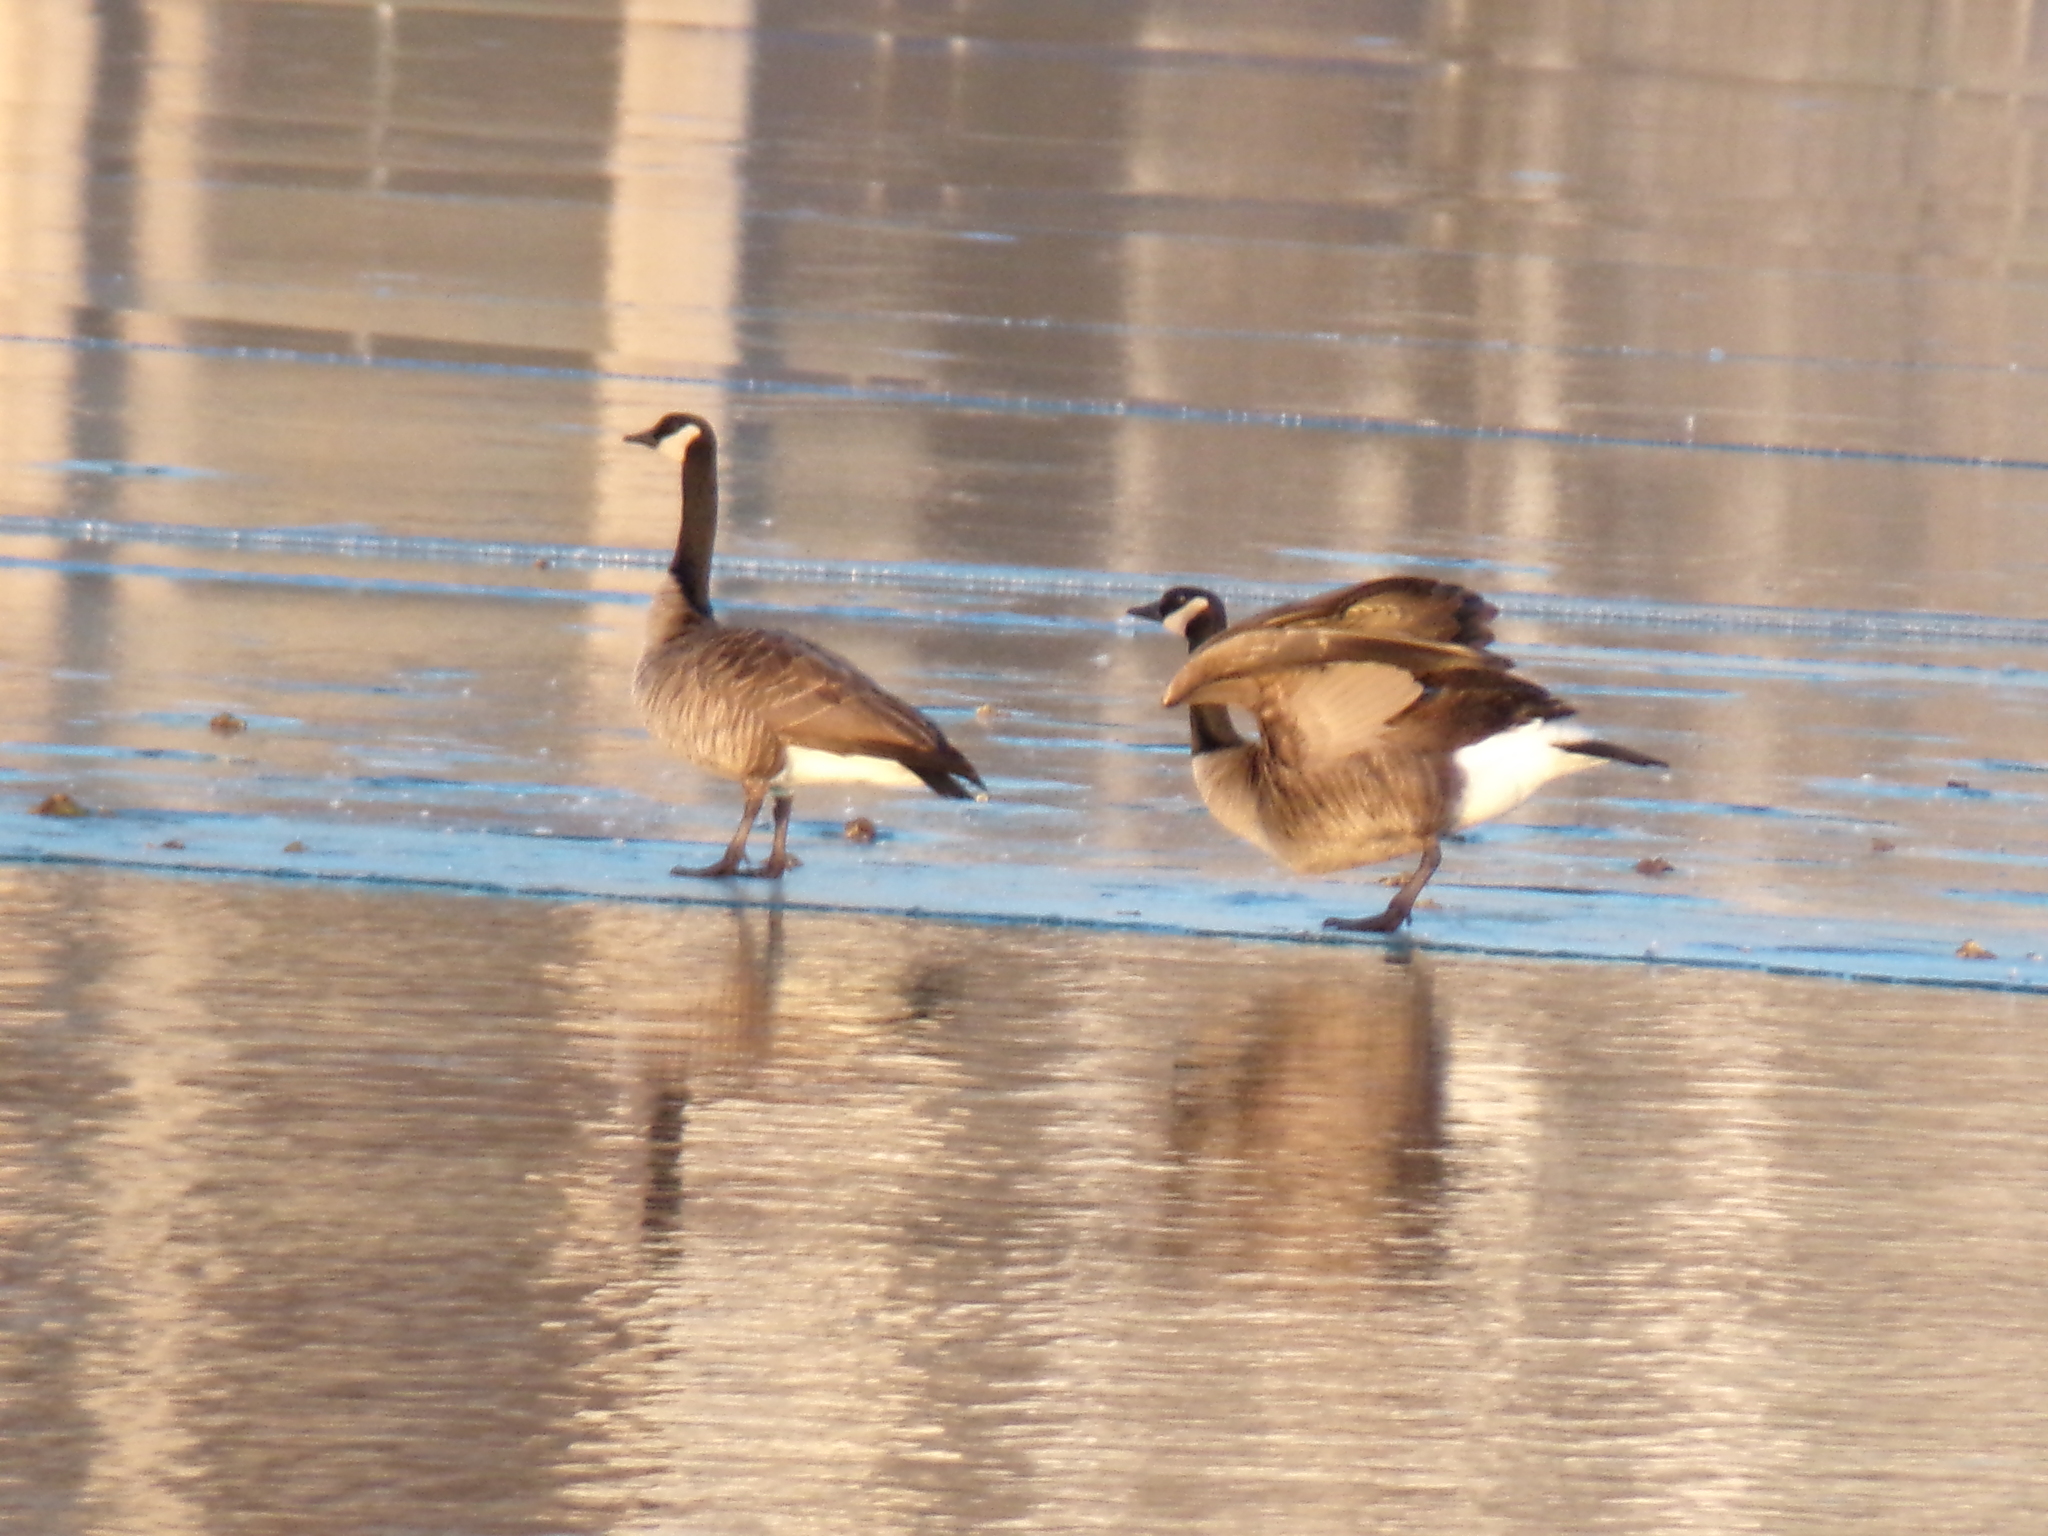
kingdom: Animalia
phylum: Chordata
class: Aves
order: Anseriformes
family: Anatidae
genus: Branta
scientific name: Branta canadensis
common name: Canada goose
